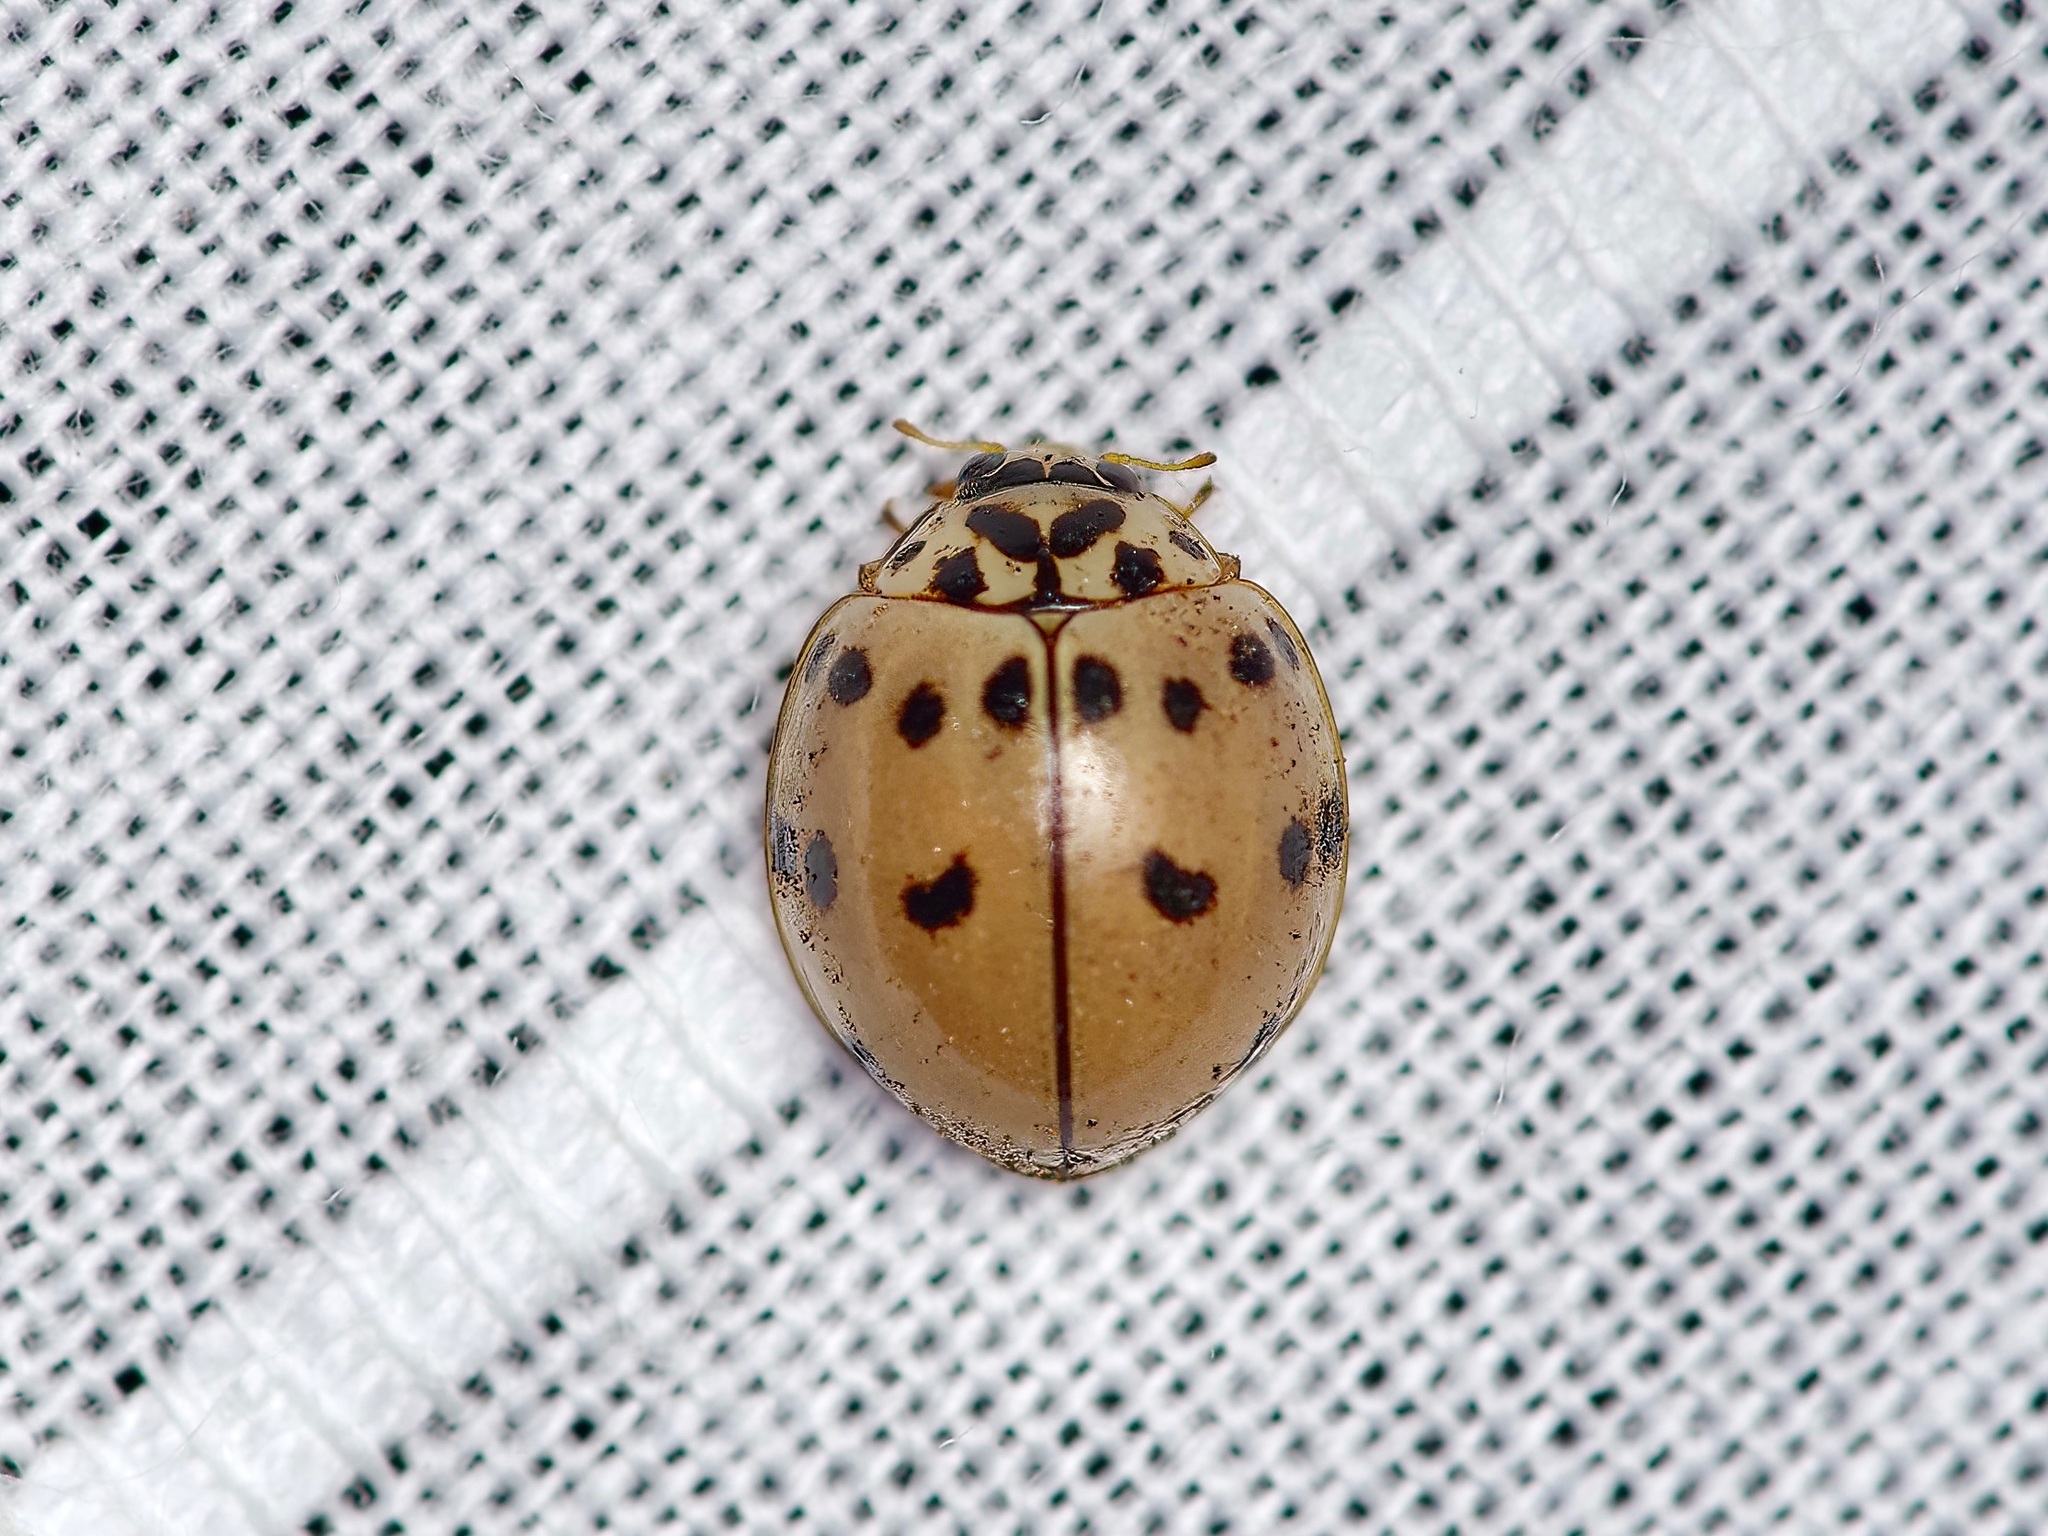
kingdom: Animalia
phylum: Arthropoda
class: Insecta
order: Coleoptera
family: Coccinellidae
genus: Olla
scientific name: Olla v-nigrum
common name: Ashy gray lady beetle
